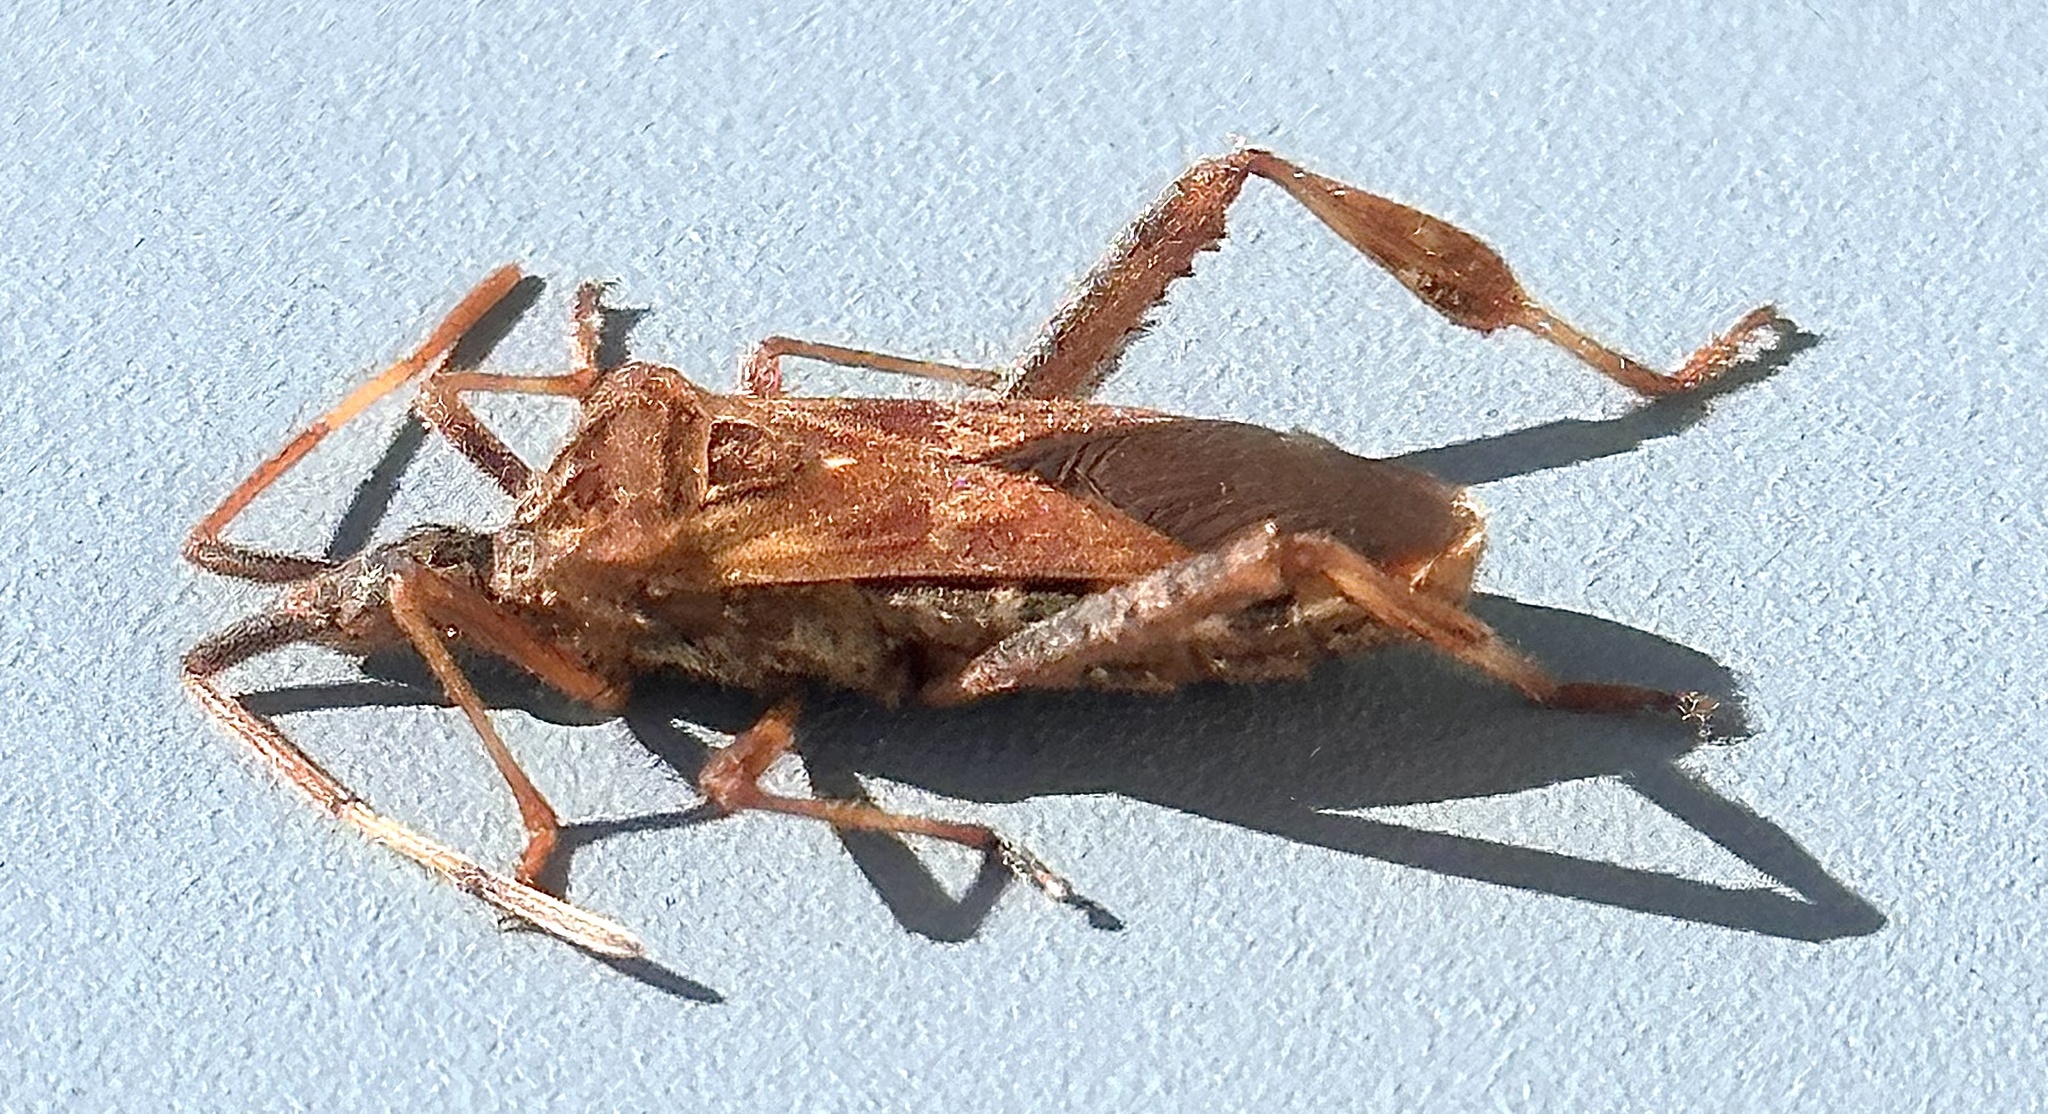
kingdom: Animalia
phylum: Arthropoda
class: Insecta
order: Hemiptera
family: Coreidae
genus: Leptoglossus
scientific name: Leptoglossus occidentalis
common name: Western conifer-seed bug
